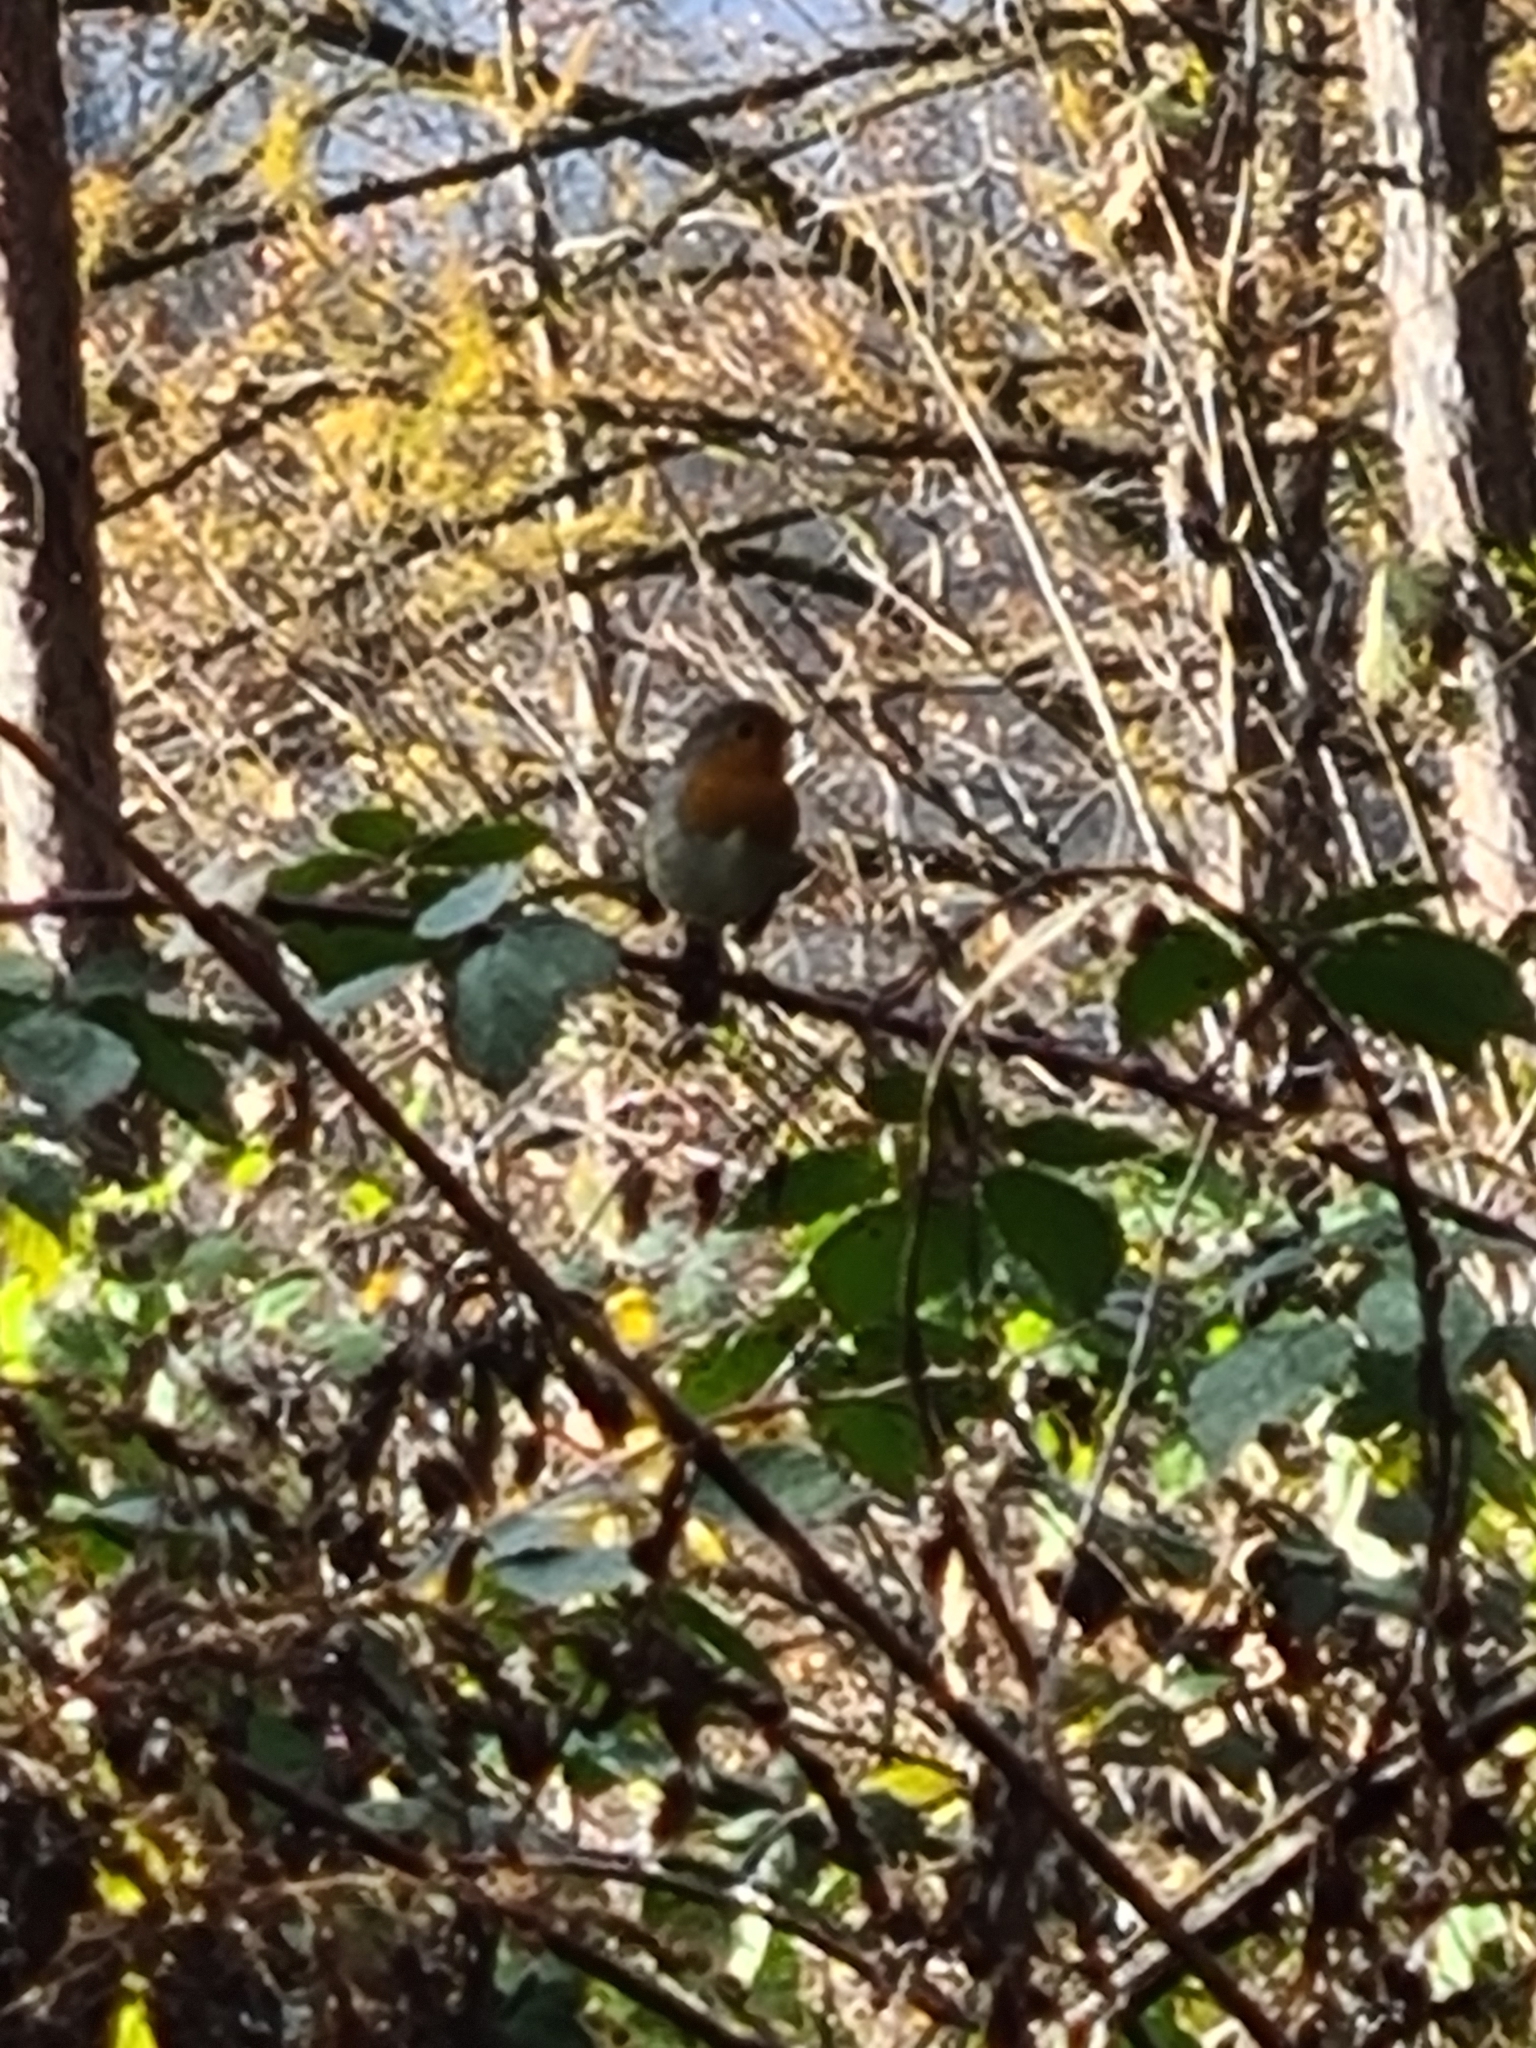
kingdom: Animalia
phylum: Chordata
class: Aves
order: Passeriformes
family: Muscicapidae
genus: Erithacus
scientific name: Erithacus rubecula
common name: European robin
